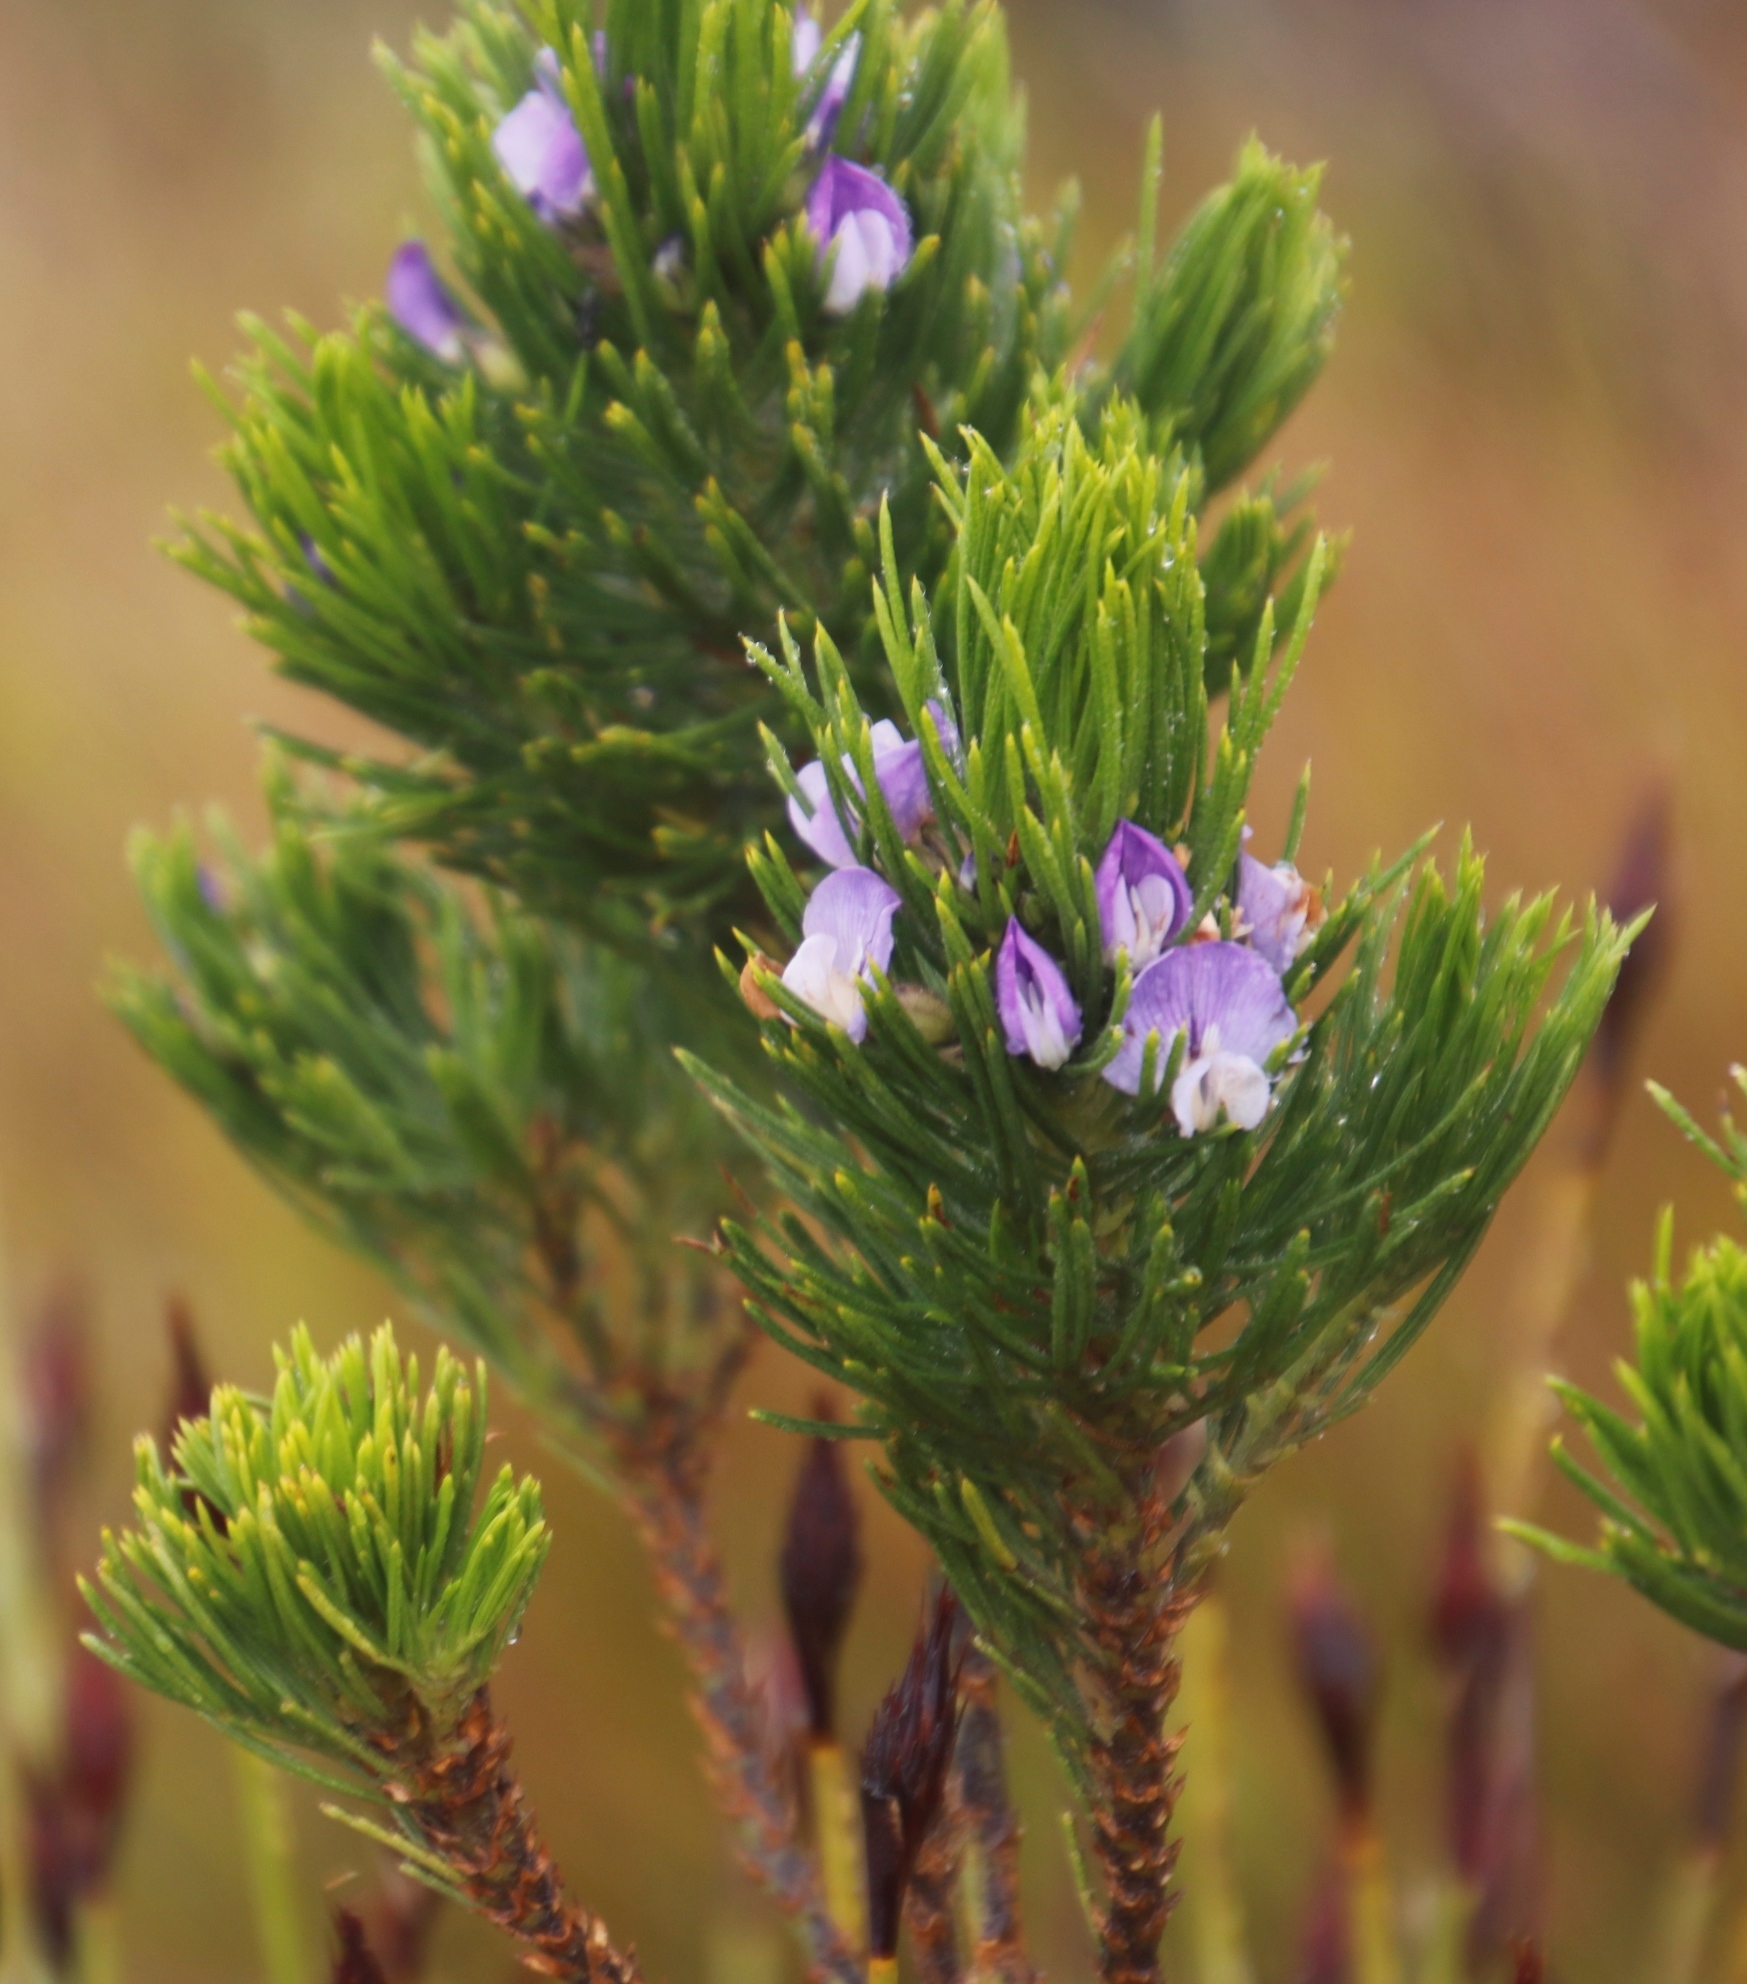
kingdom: Plantae
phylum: Tracheophyta
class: Magnoliopsida
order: Fabales
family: Fabaceae
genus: Psoralea
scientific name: Psoralea pinnata
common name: African scurfpea
